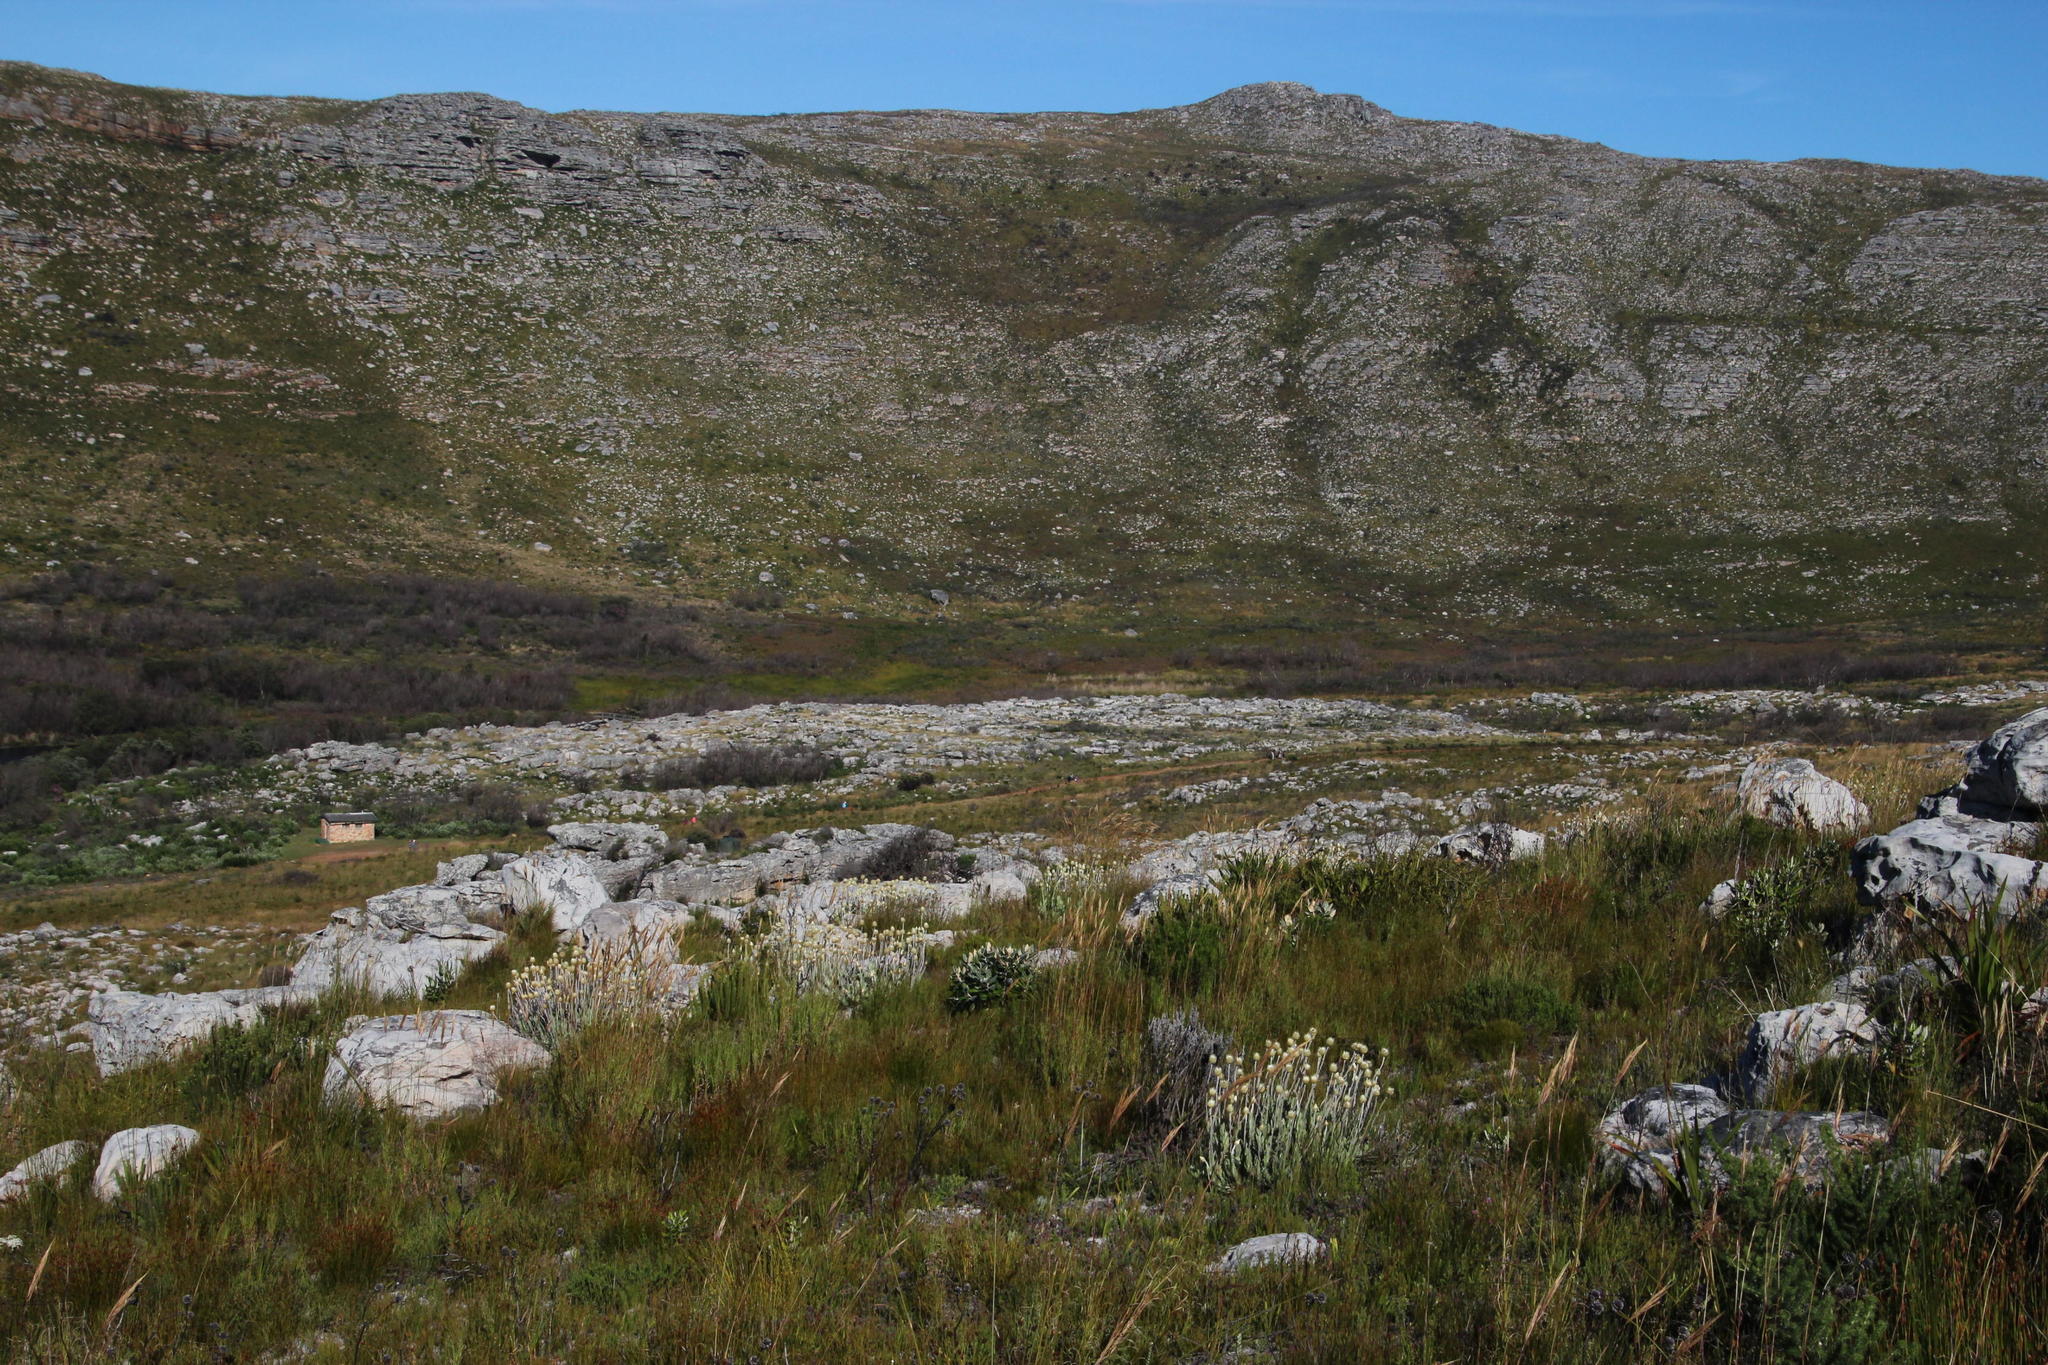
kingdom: Plantae
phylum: Tracheophyta
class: Magnoliopsida
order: Asterales
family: Asteraceae
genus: Syncarpha
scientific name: Syncarpha speciosissima
